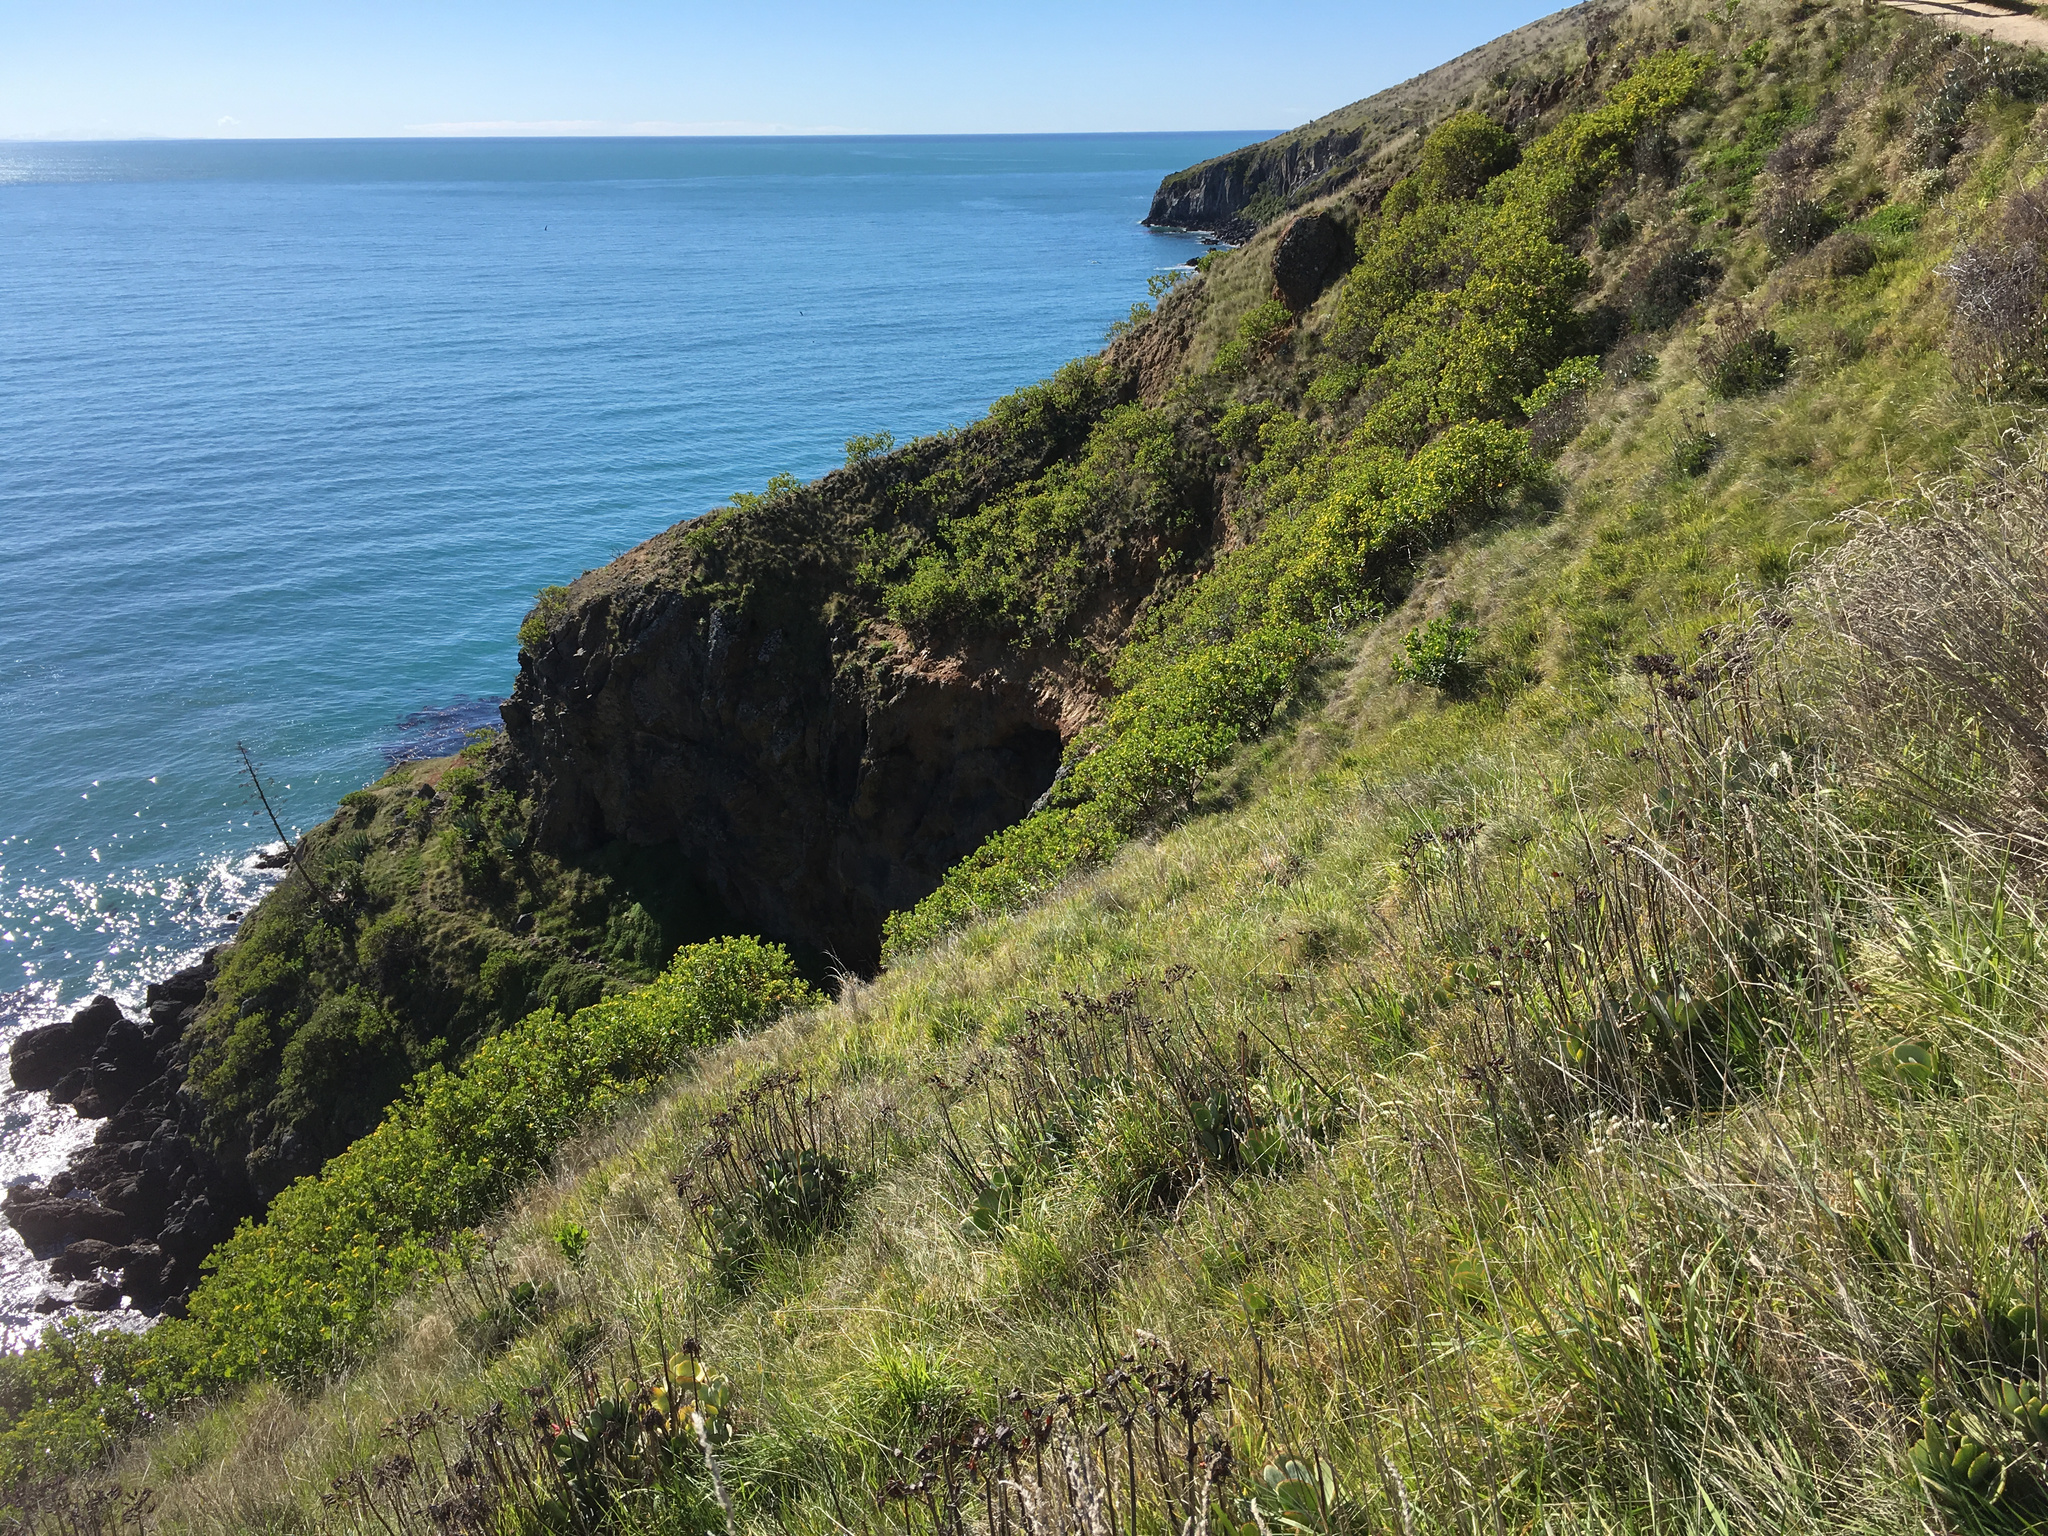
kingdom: Plantae
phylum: Tracheophyta
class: Magnoliopsida
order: Asterales
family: Asteraceae
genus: Osteospermum
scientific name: Osteospermum moniliferum
